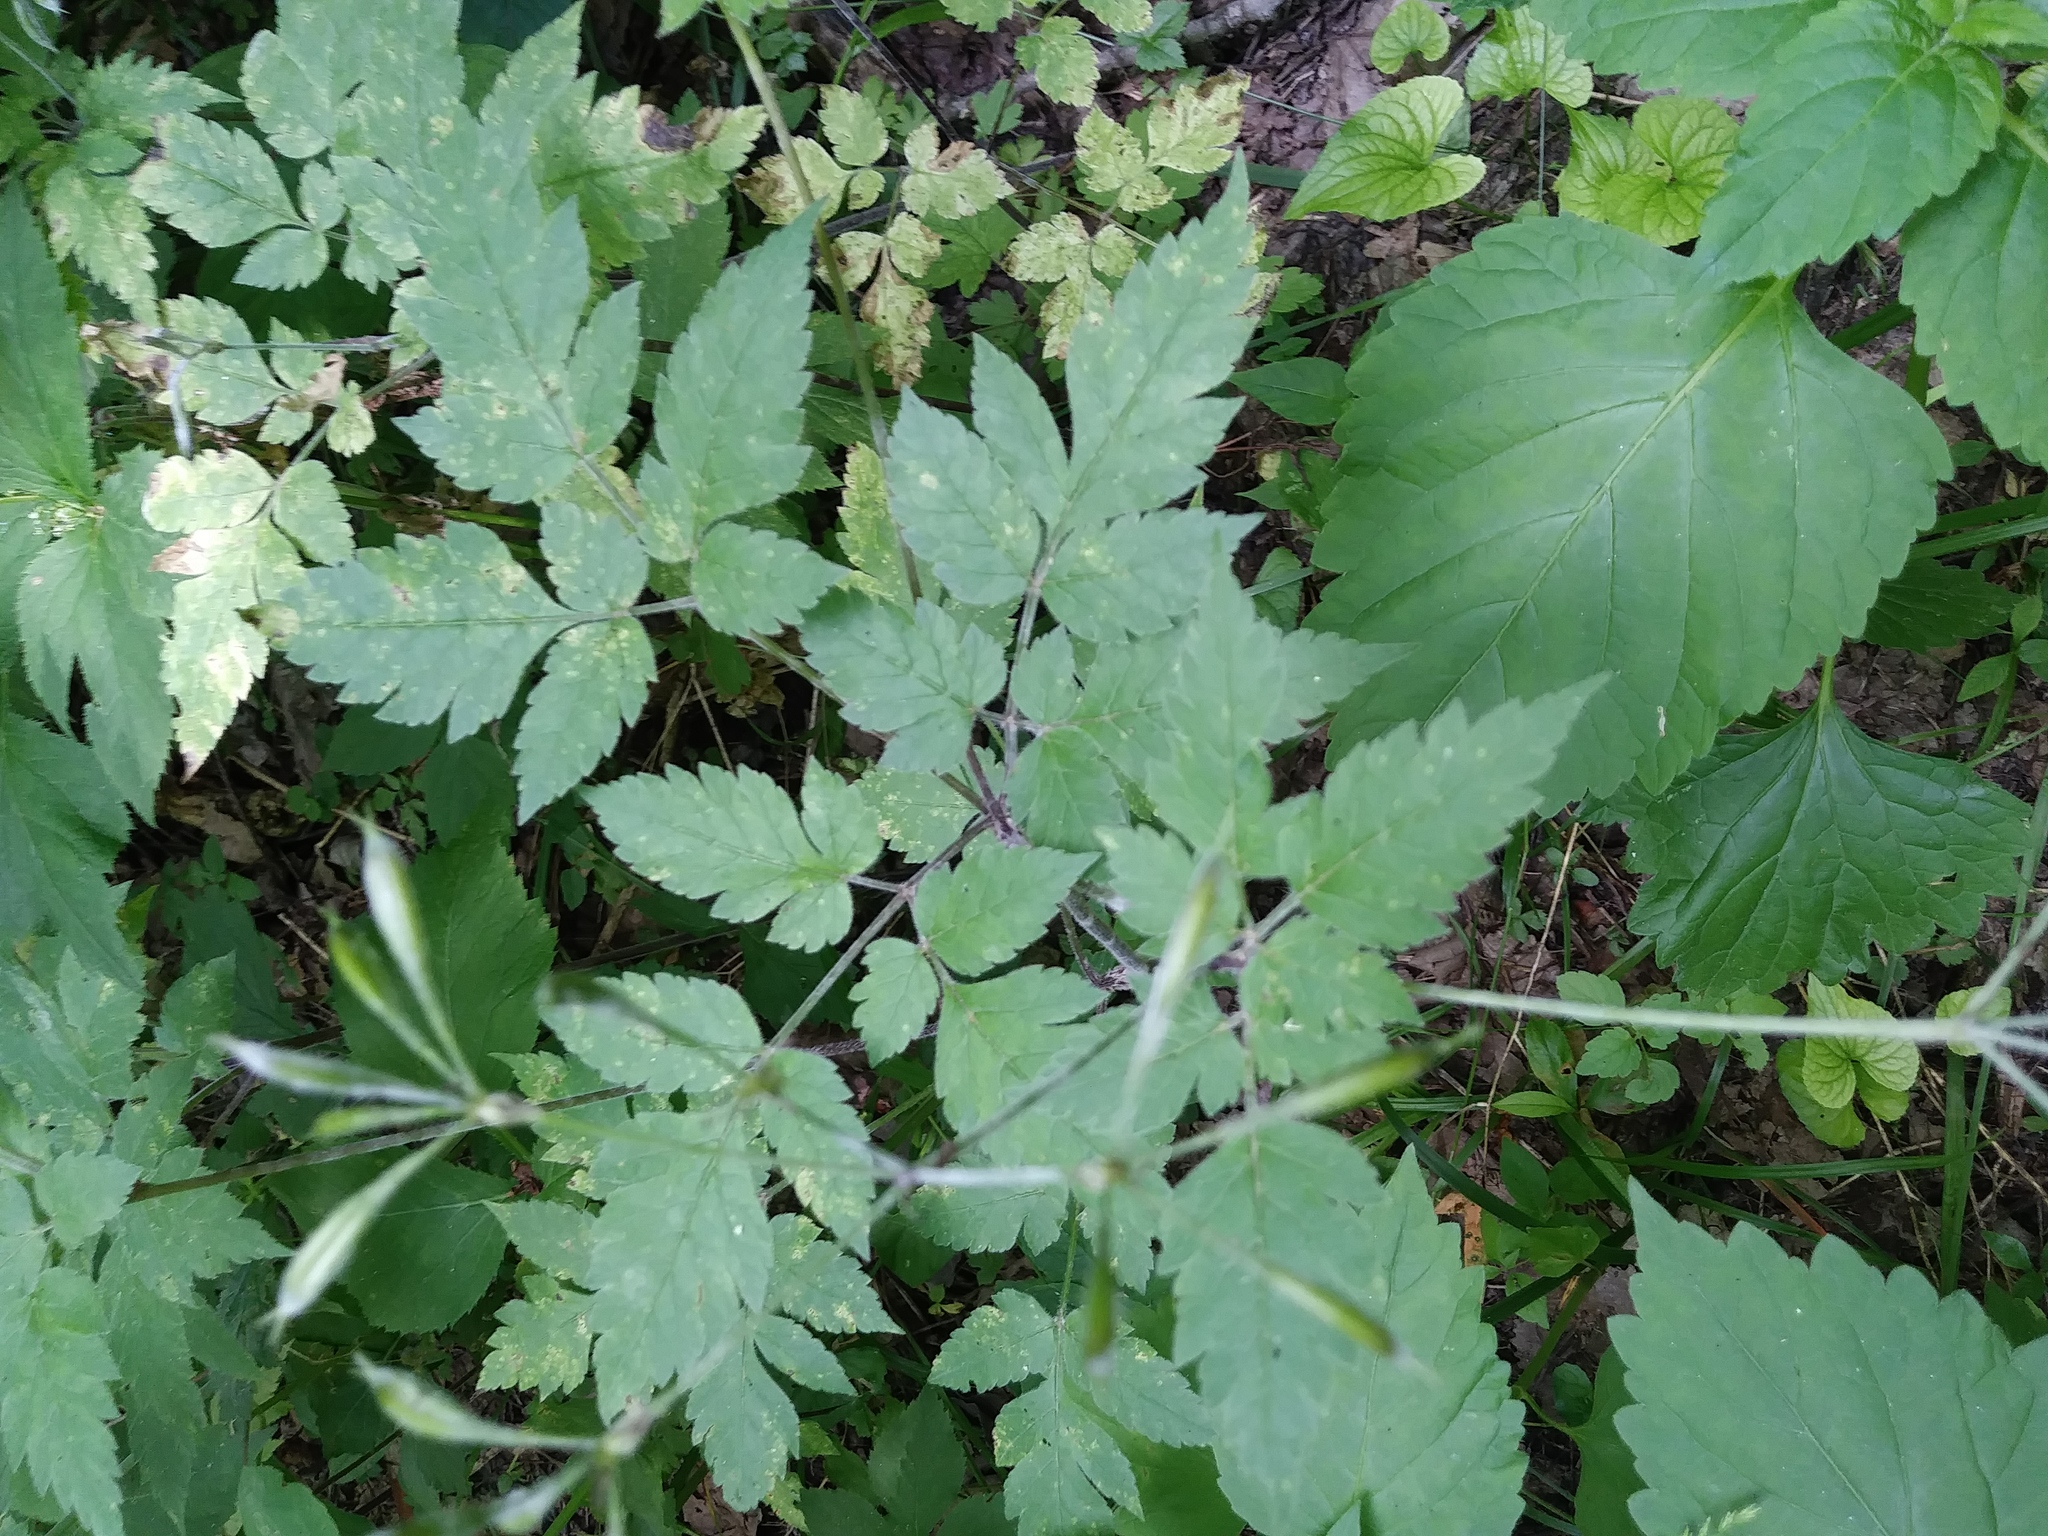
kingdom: Plantae
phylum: Tracheophyta
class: Magnoliopsida
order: Apiales
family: Apiaceae
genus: Osmorhiza
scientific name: Osmorhiza longistylis
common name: Smooth sweet cicely
